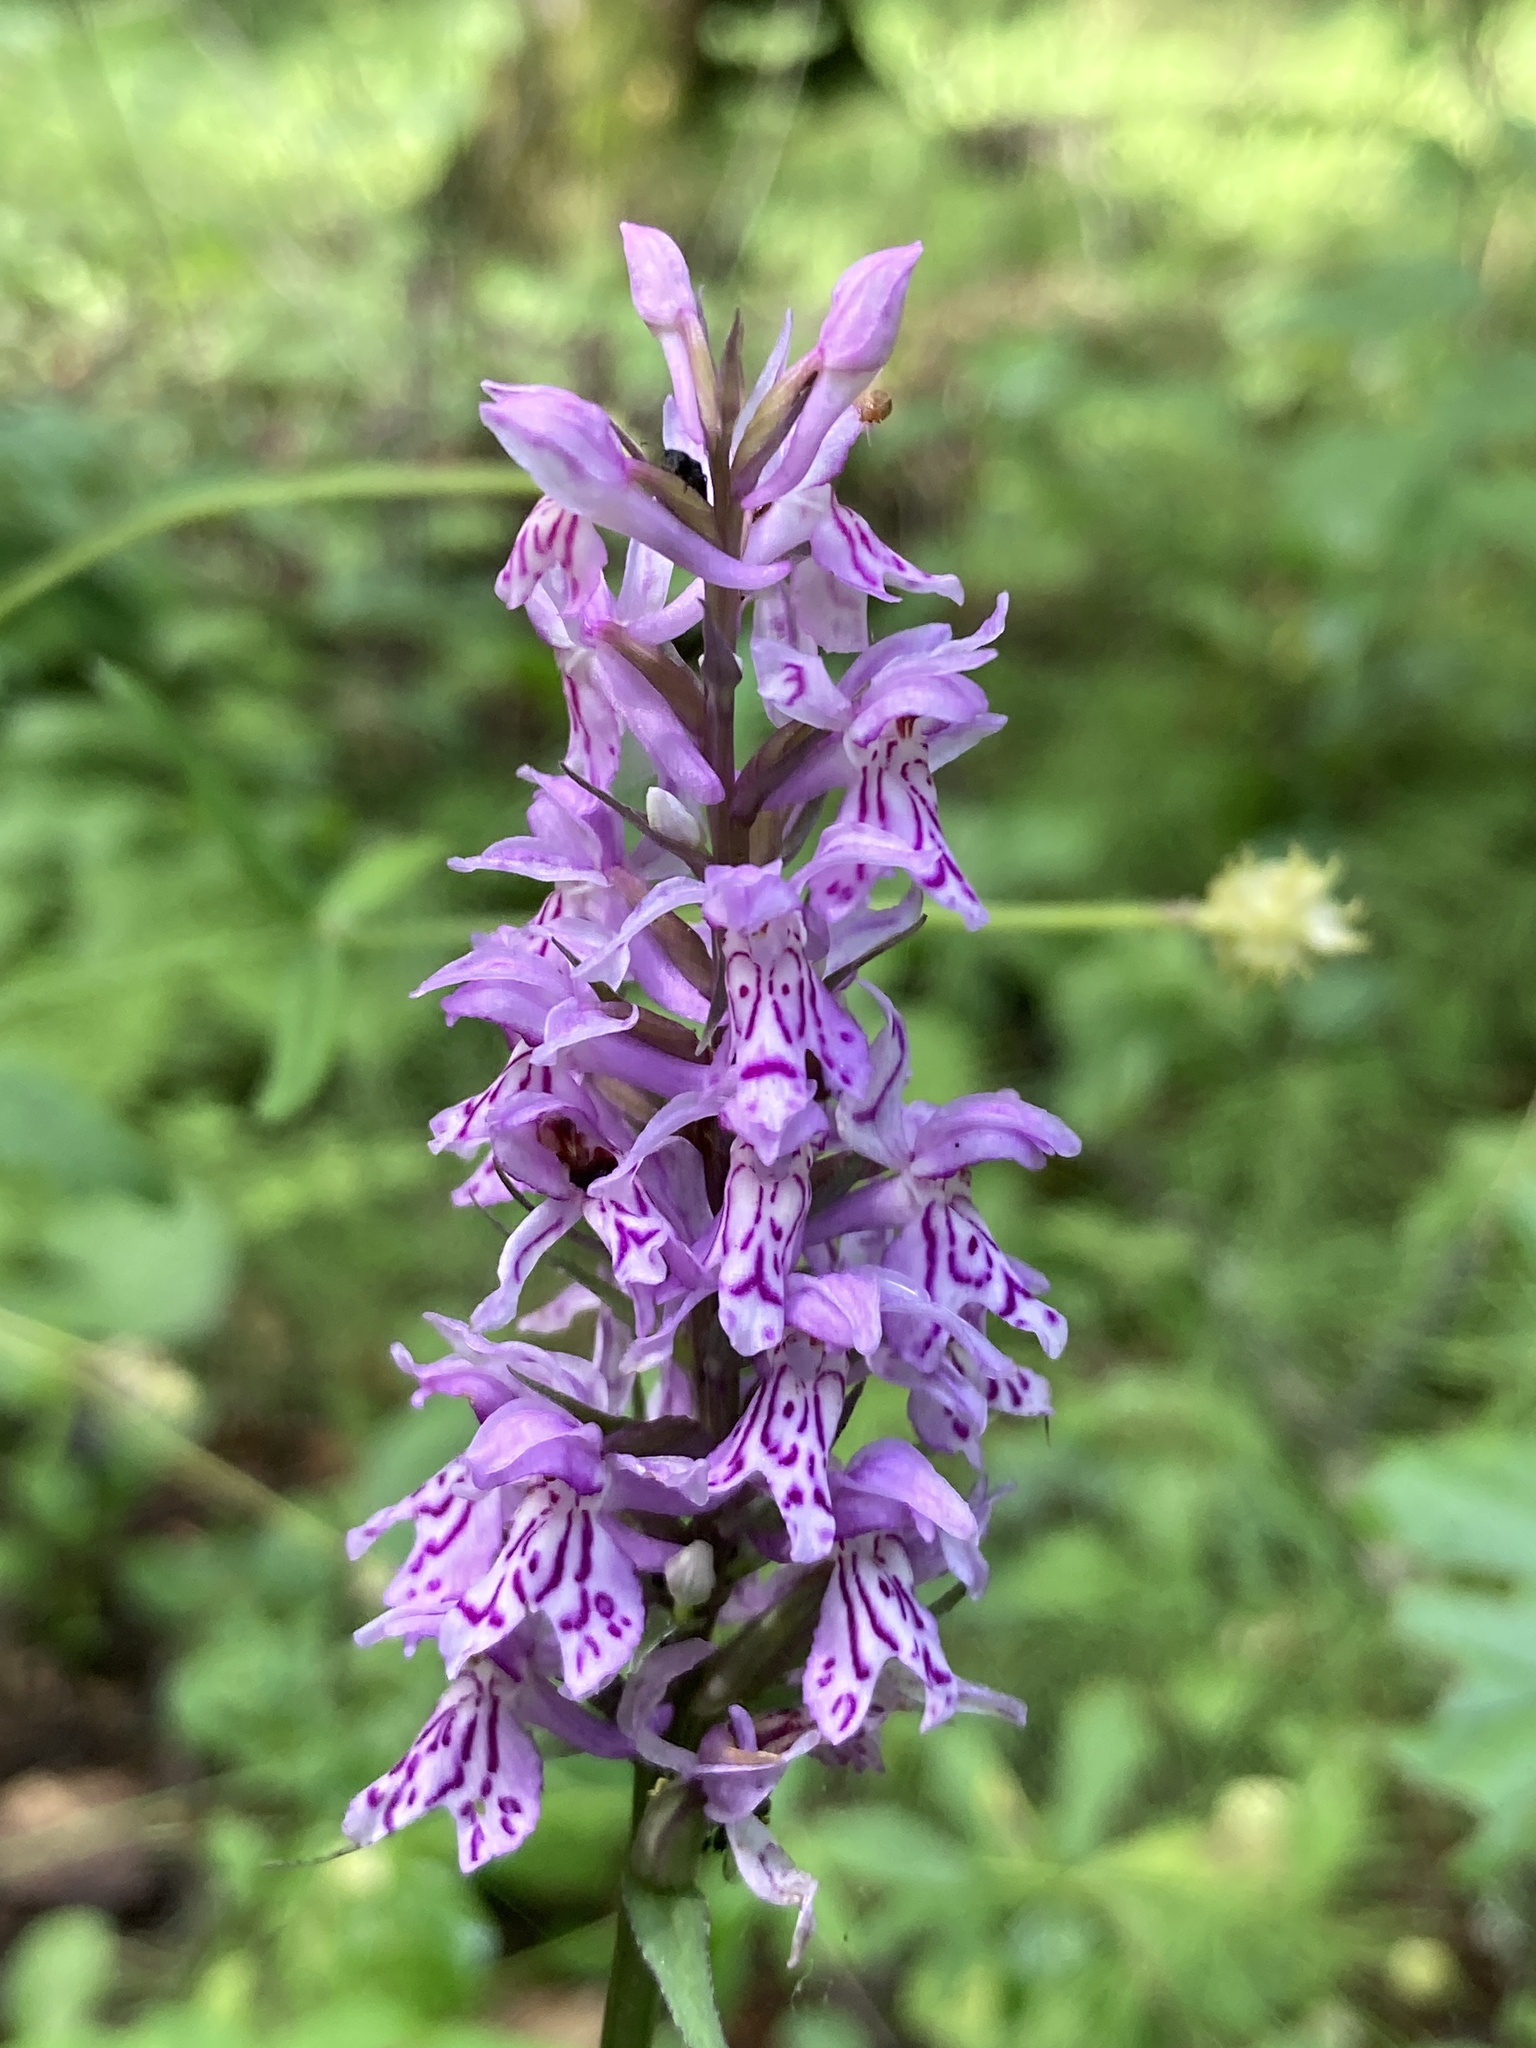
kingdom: Plantae
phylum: Tracheophyta
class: Liliopsida
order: Asparagales
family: Orchidaceae
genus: Dactylorhiza
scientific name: Dactylorhiza maculata
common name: Heath spotted-orchid
